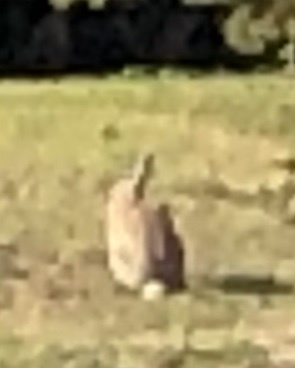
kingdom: Animalia
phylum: Chordata
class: Mammalia
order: Lagomorpha
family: Leporidae
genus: Oryctolagus
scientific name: Oryctolagus cuniculus
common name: European rabbit
